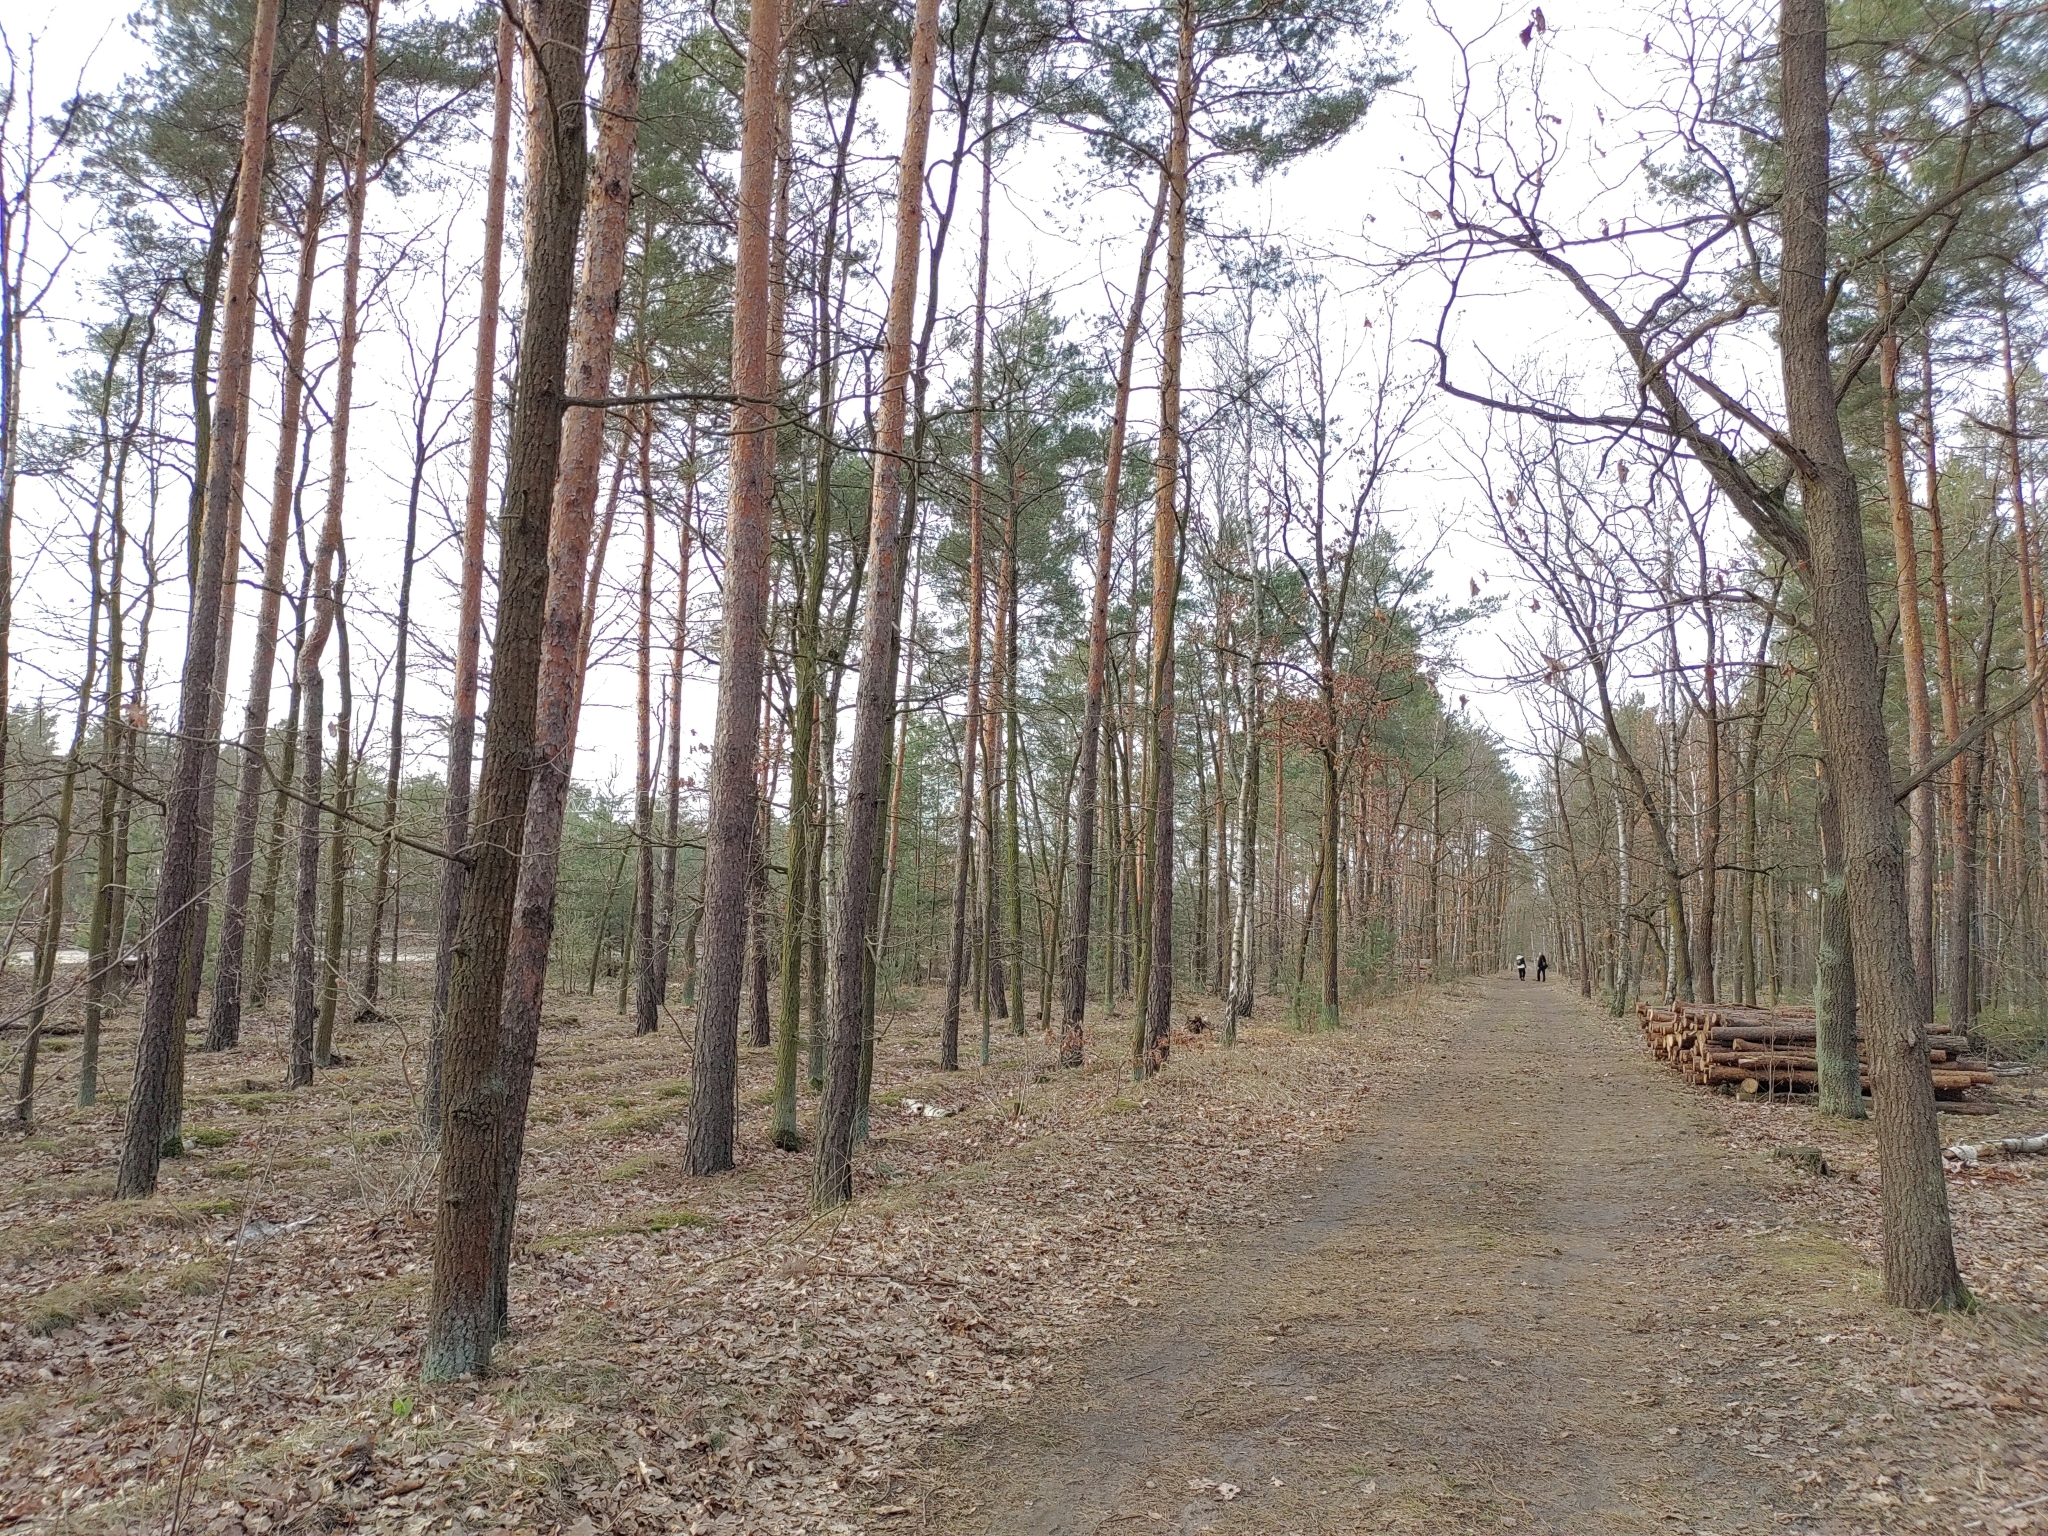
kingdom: Animalia
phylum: Chordata
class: Aves
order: Passeriformes
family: Paridae
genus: Parus
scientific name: Parus major
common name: Great tit
